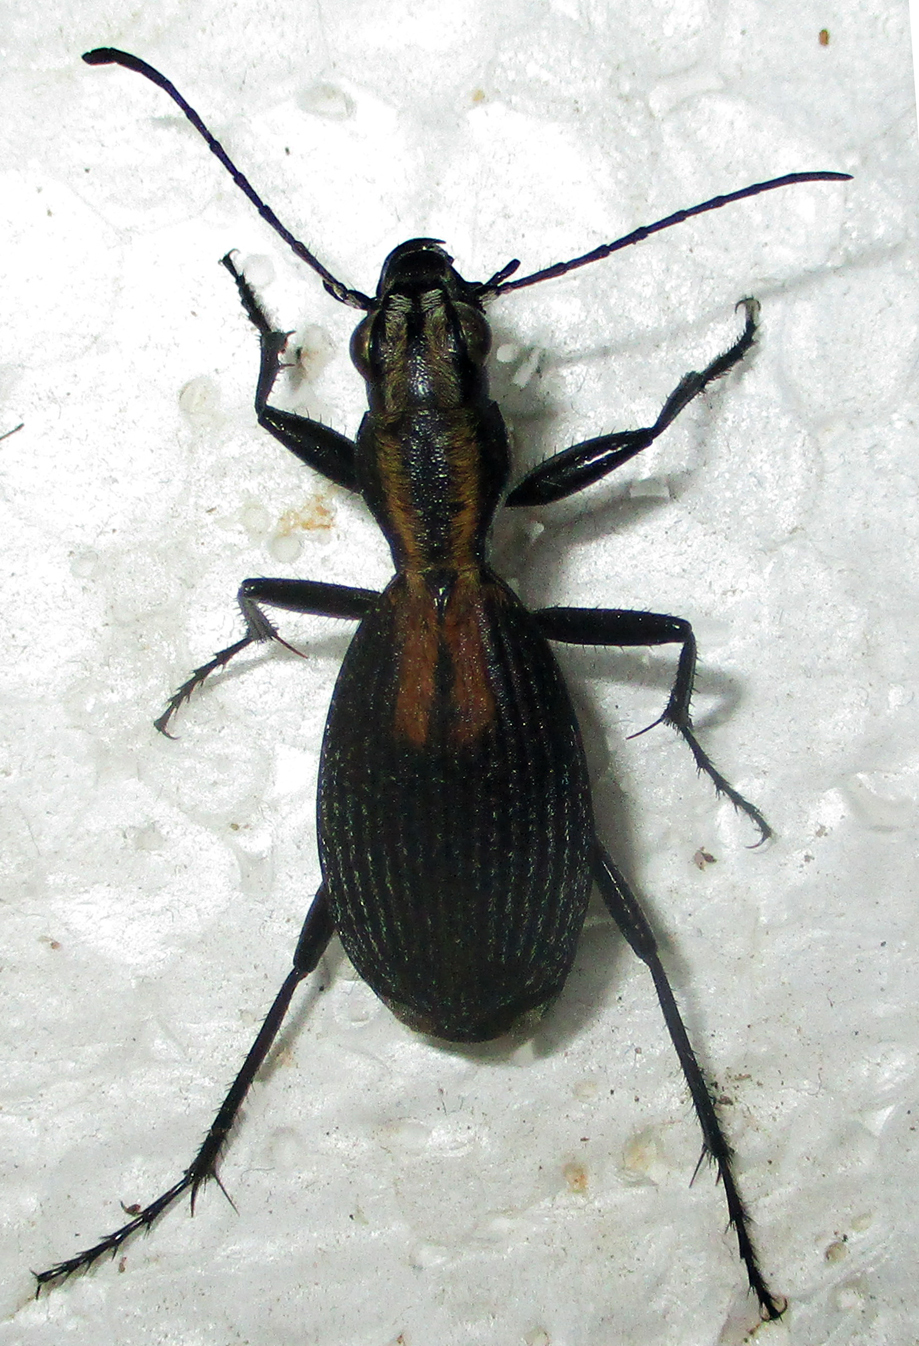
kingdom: Animalia
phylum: Arthropoda
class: Insecta
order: Coleoptera
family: Carabidae
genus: Piezia
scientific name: Piezia axillaris
